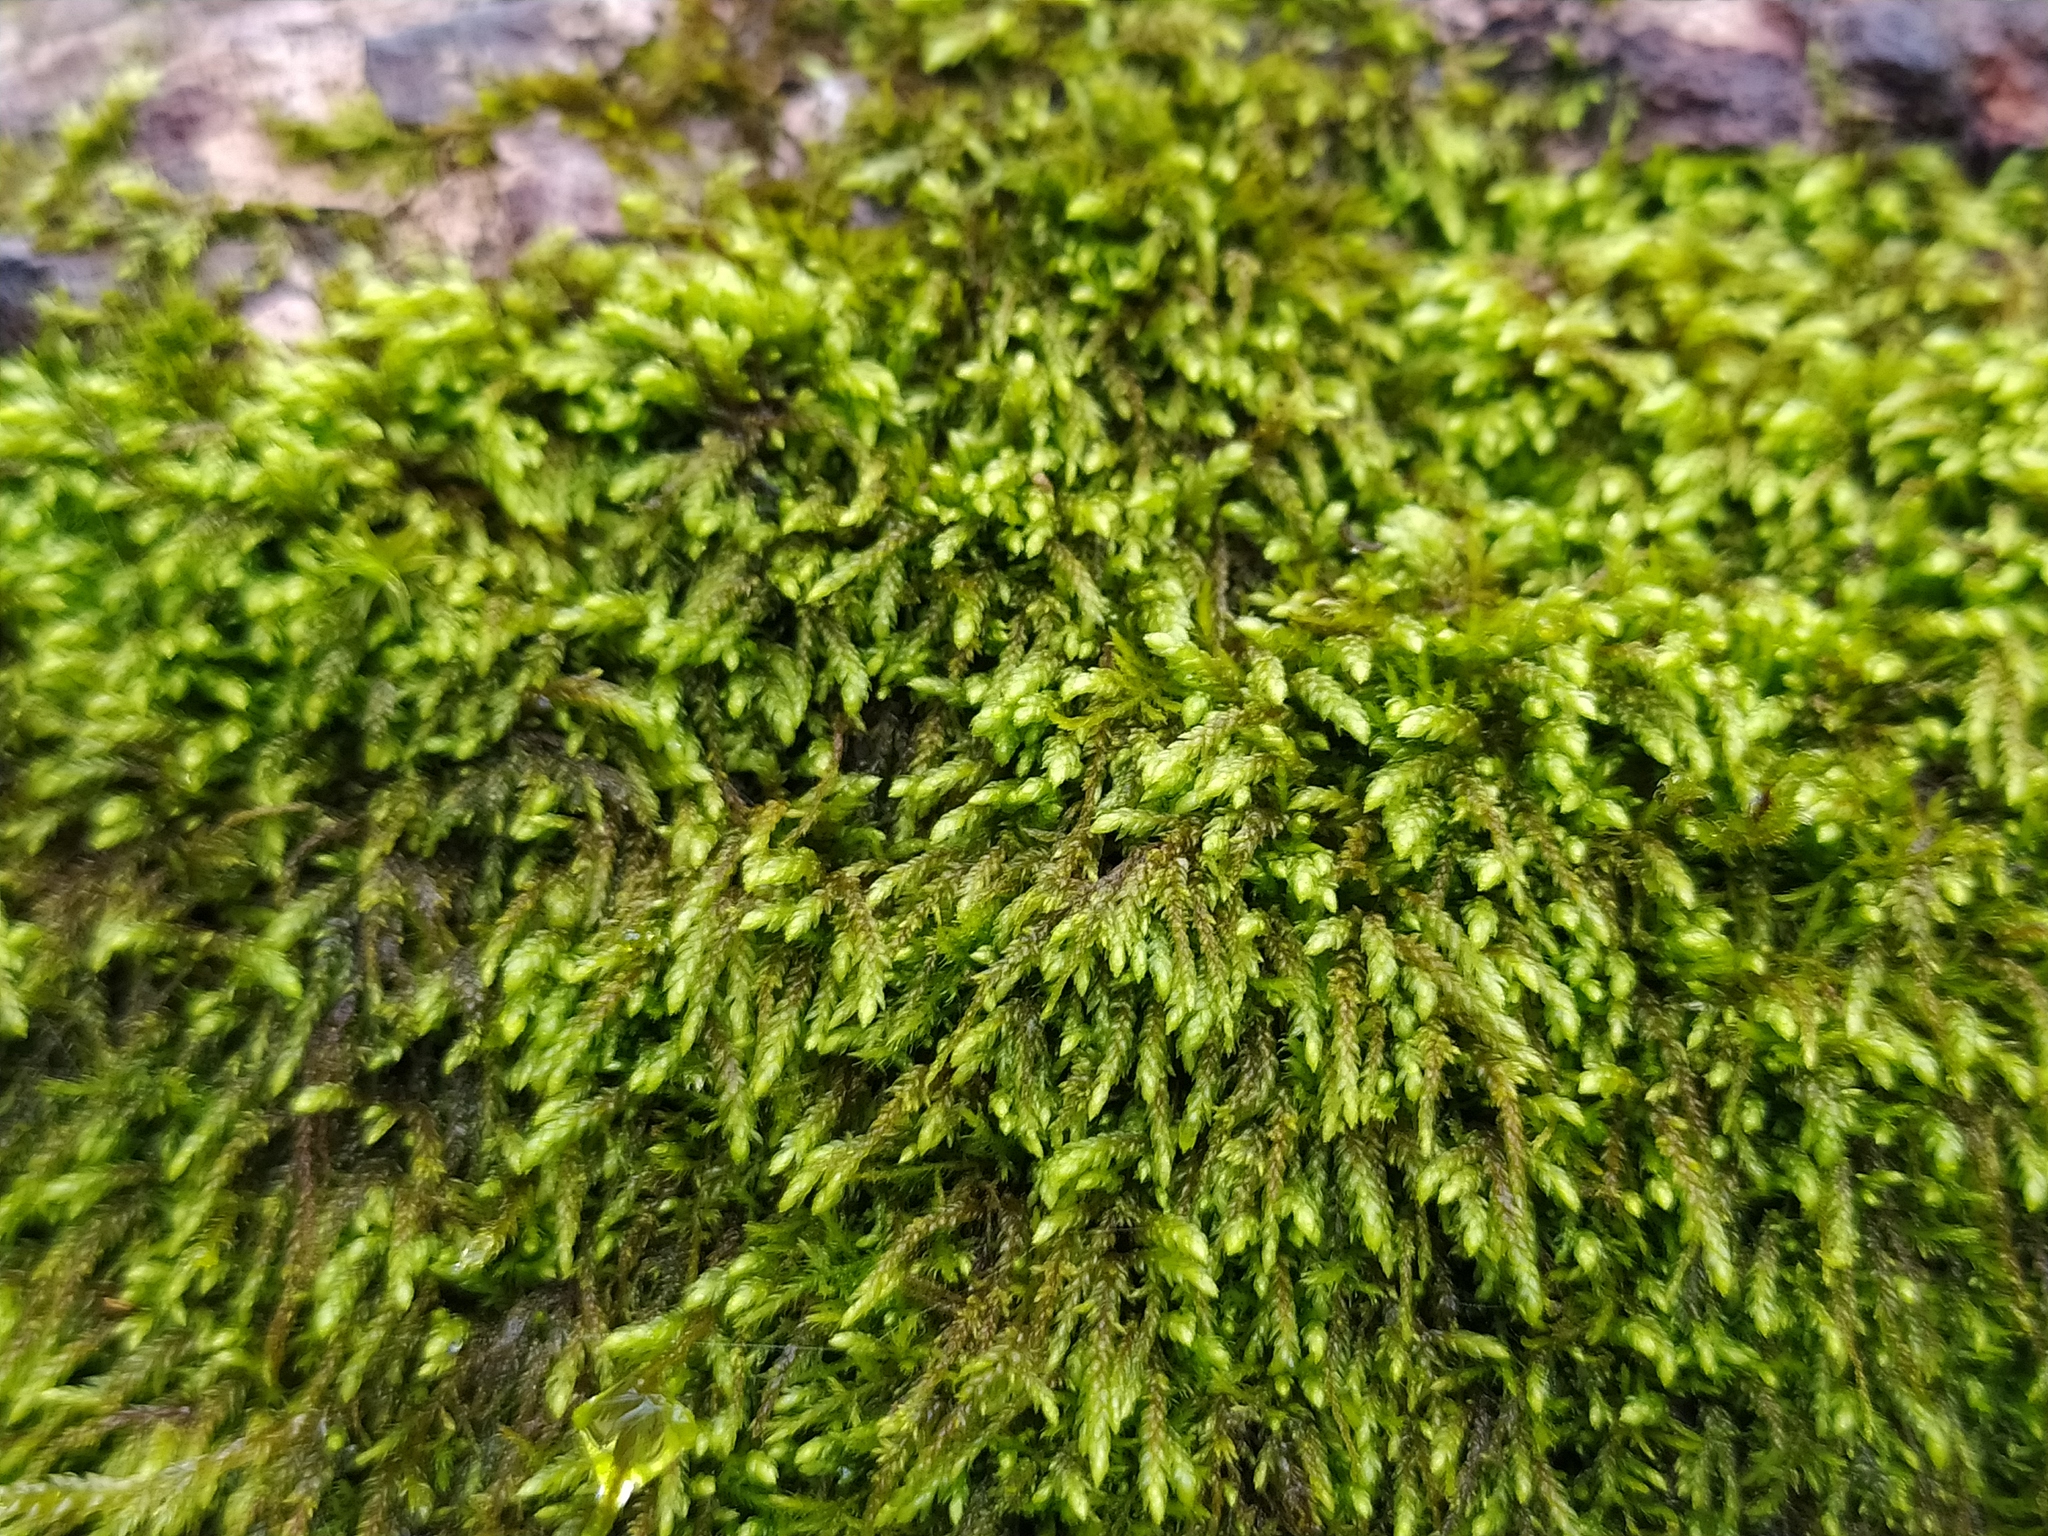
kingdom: Plantae
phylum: Bryophyta
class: Bryopsida
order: Hypnales
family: Pterigynandraceae
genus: Pterigynandrum
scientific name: Pterigynandrum filiforme
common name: Capillary wing moss
